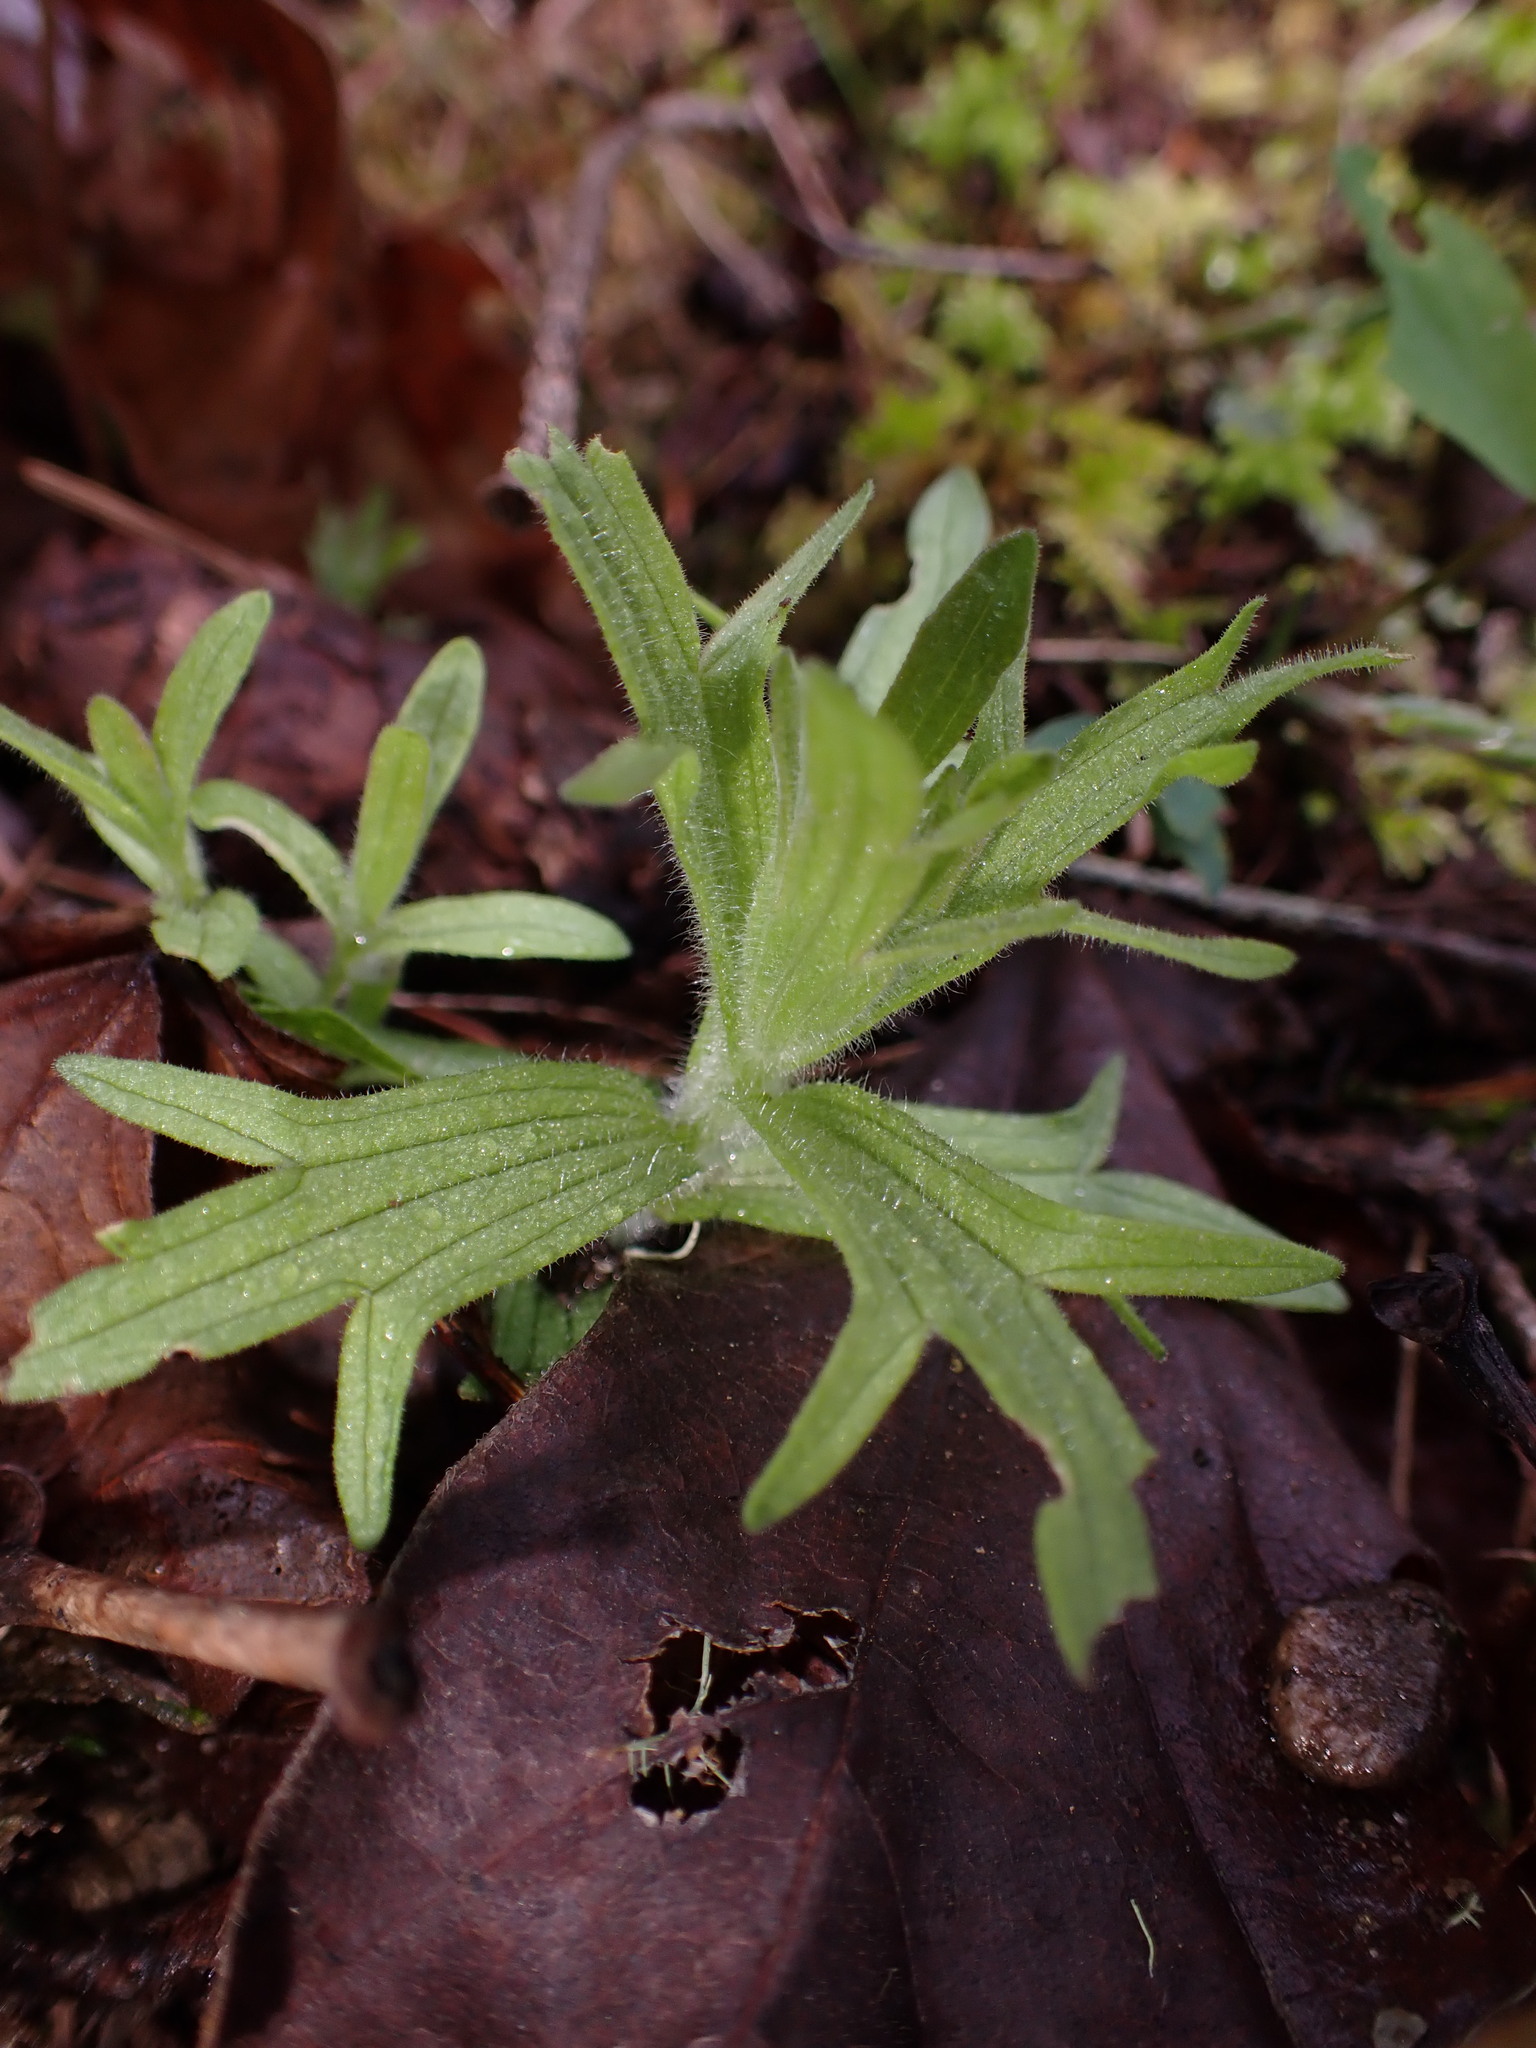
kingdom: Plantae
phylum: Tracheophyta
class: Magnoliopsida
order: Lamiales
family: Orobanchaceae
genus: Castilleja
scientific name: Castilleja hispida
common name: Bristly paintbrush
